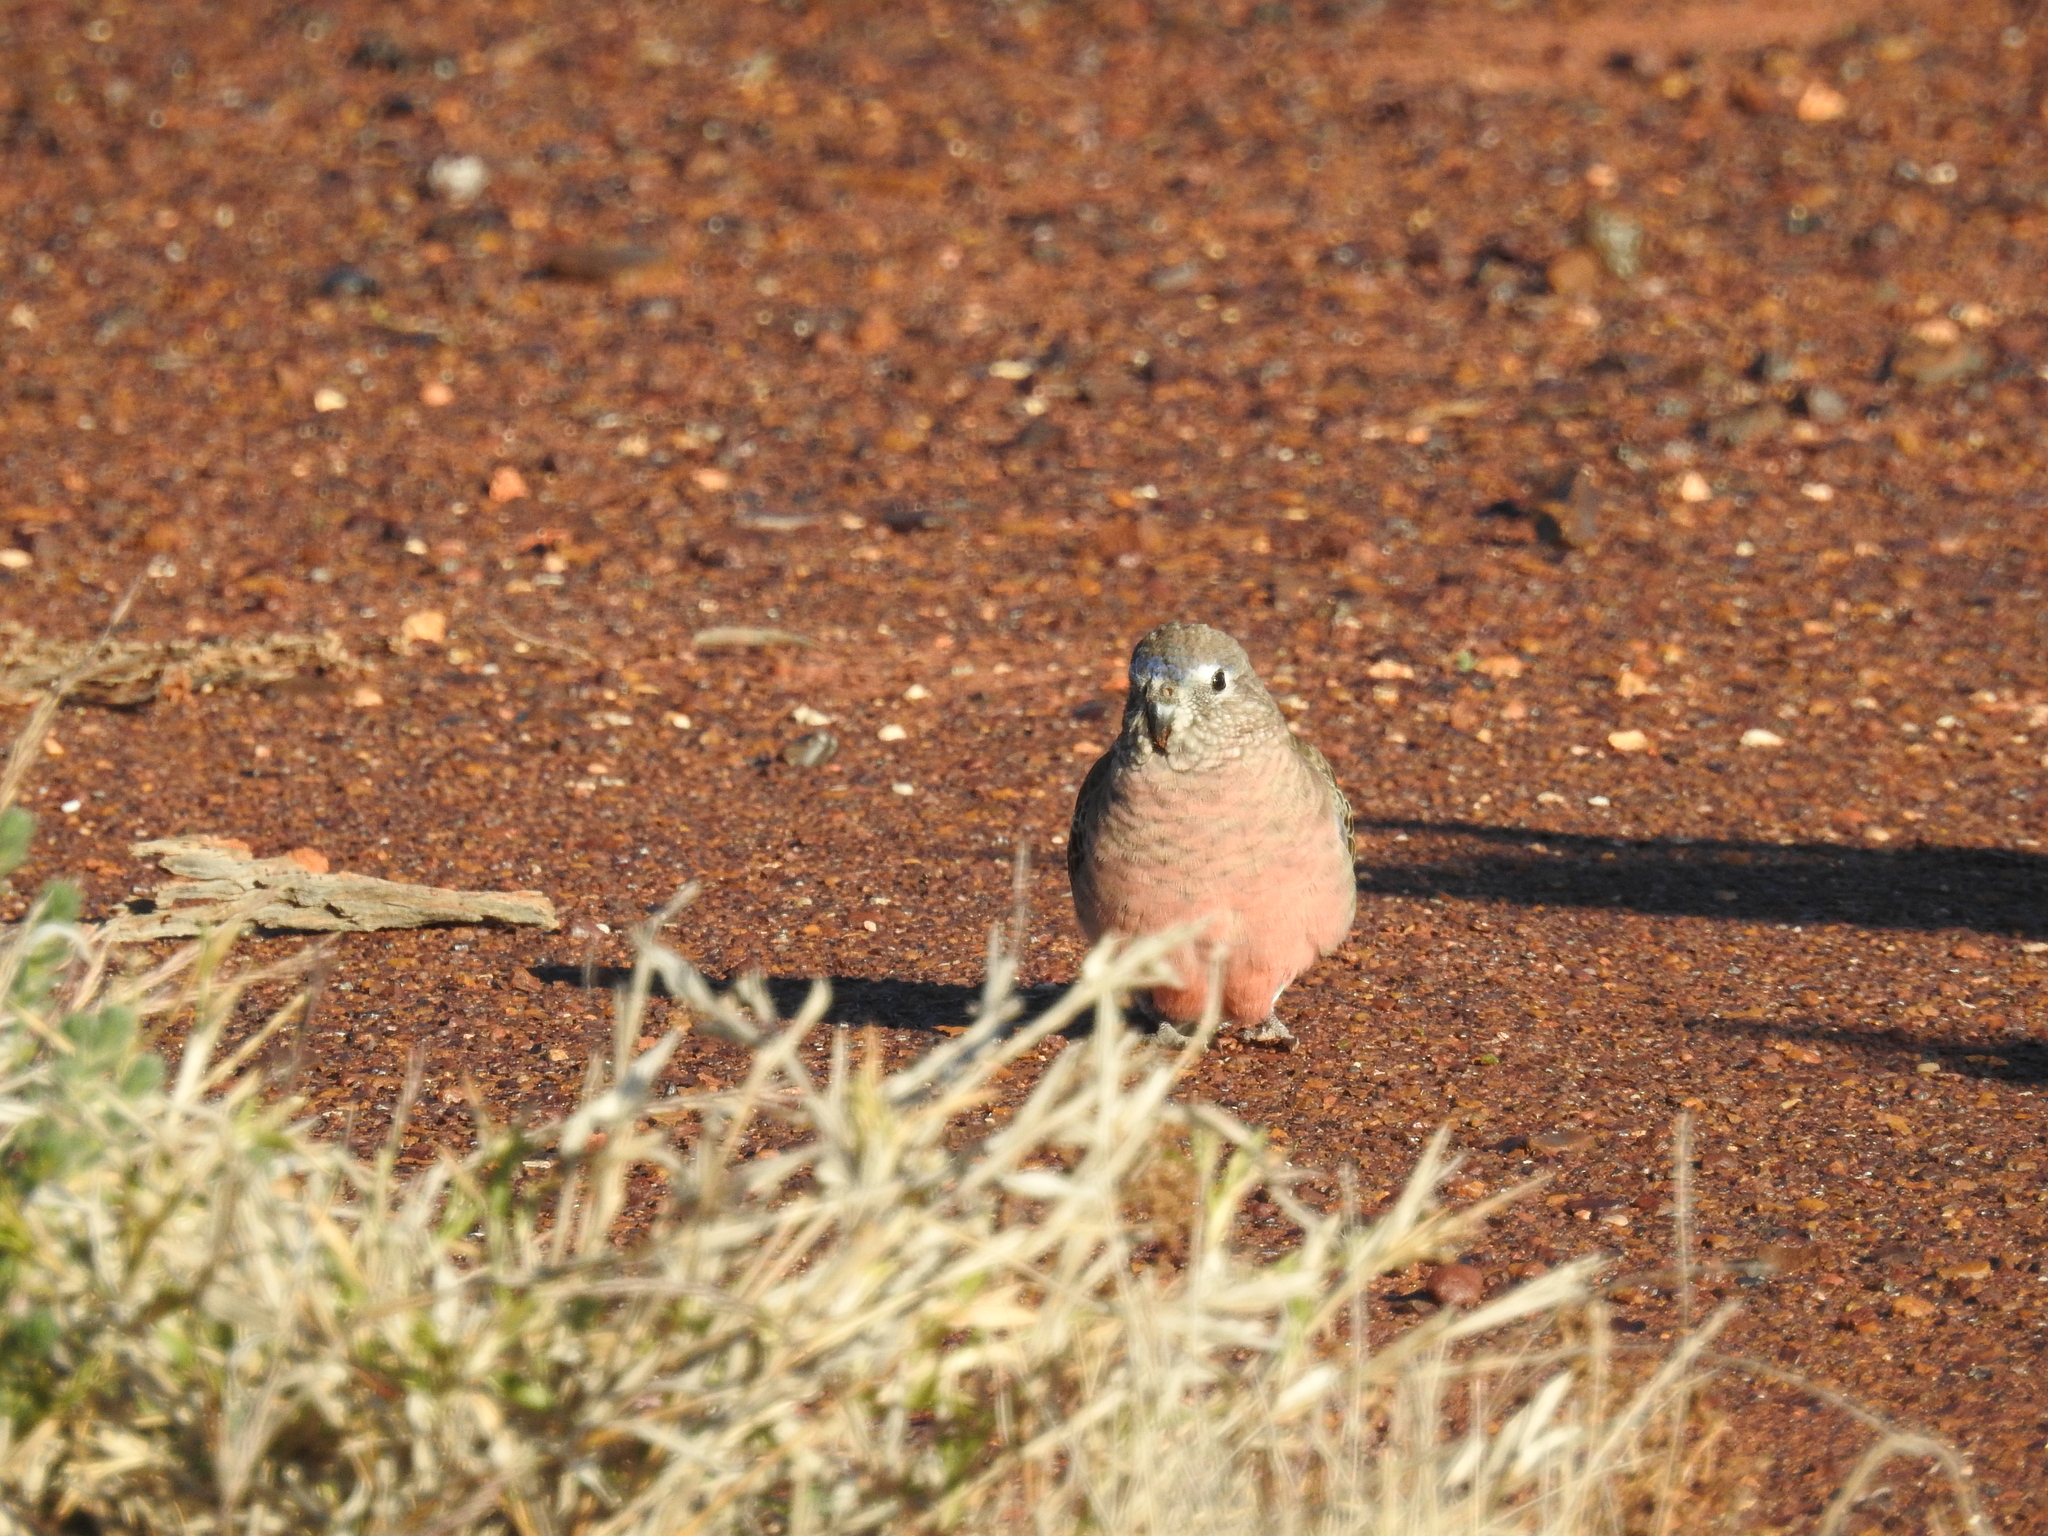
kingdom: Animalia
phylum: Chordata
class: Aves
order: Psittaciformes
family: Psittacidae
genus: Neopsephotus
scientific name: Neopsephotus bourkii
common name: Bourke's parrot
